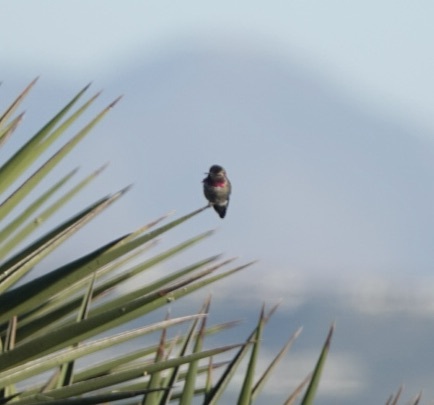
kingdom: Animalia
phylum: Chordata
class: Aves
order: Apodiformes
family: Trochilidae
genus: Calypte
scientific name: Calypte anna
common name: Anna's hummingbird
